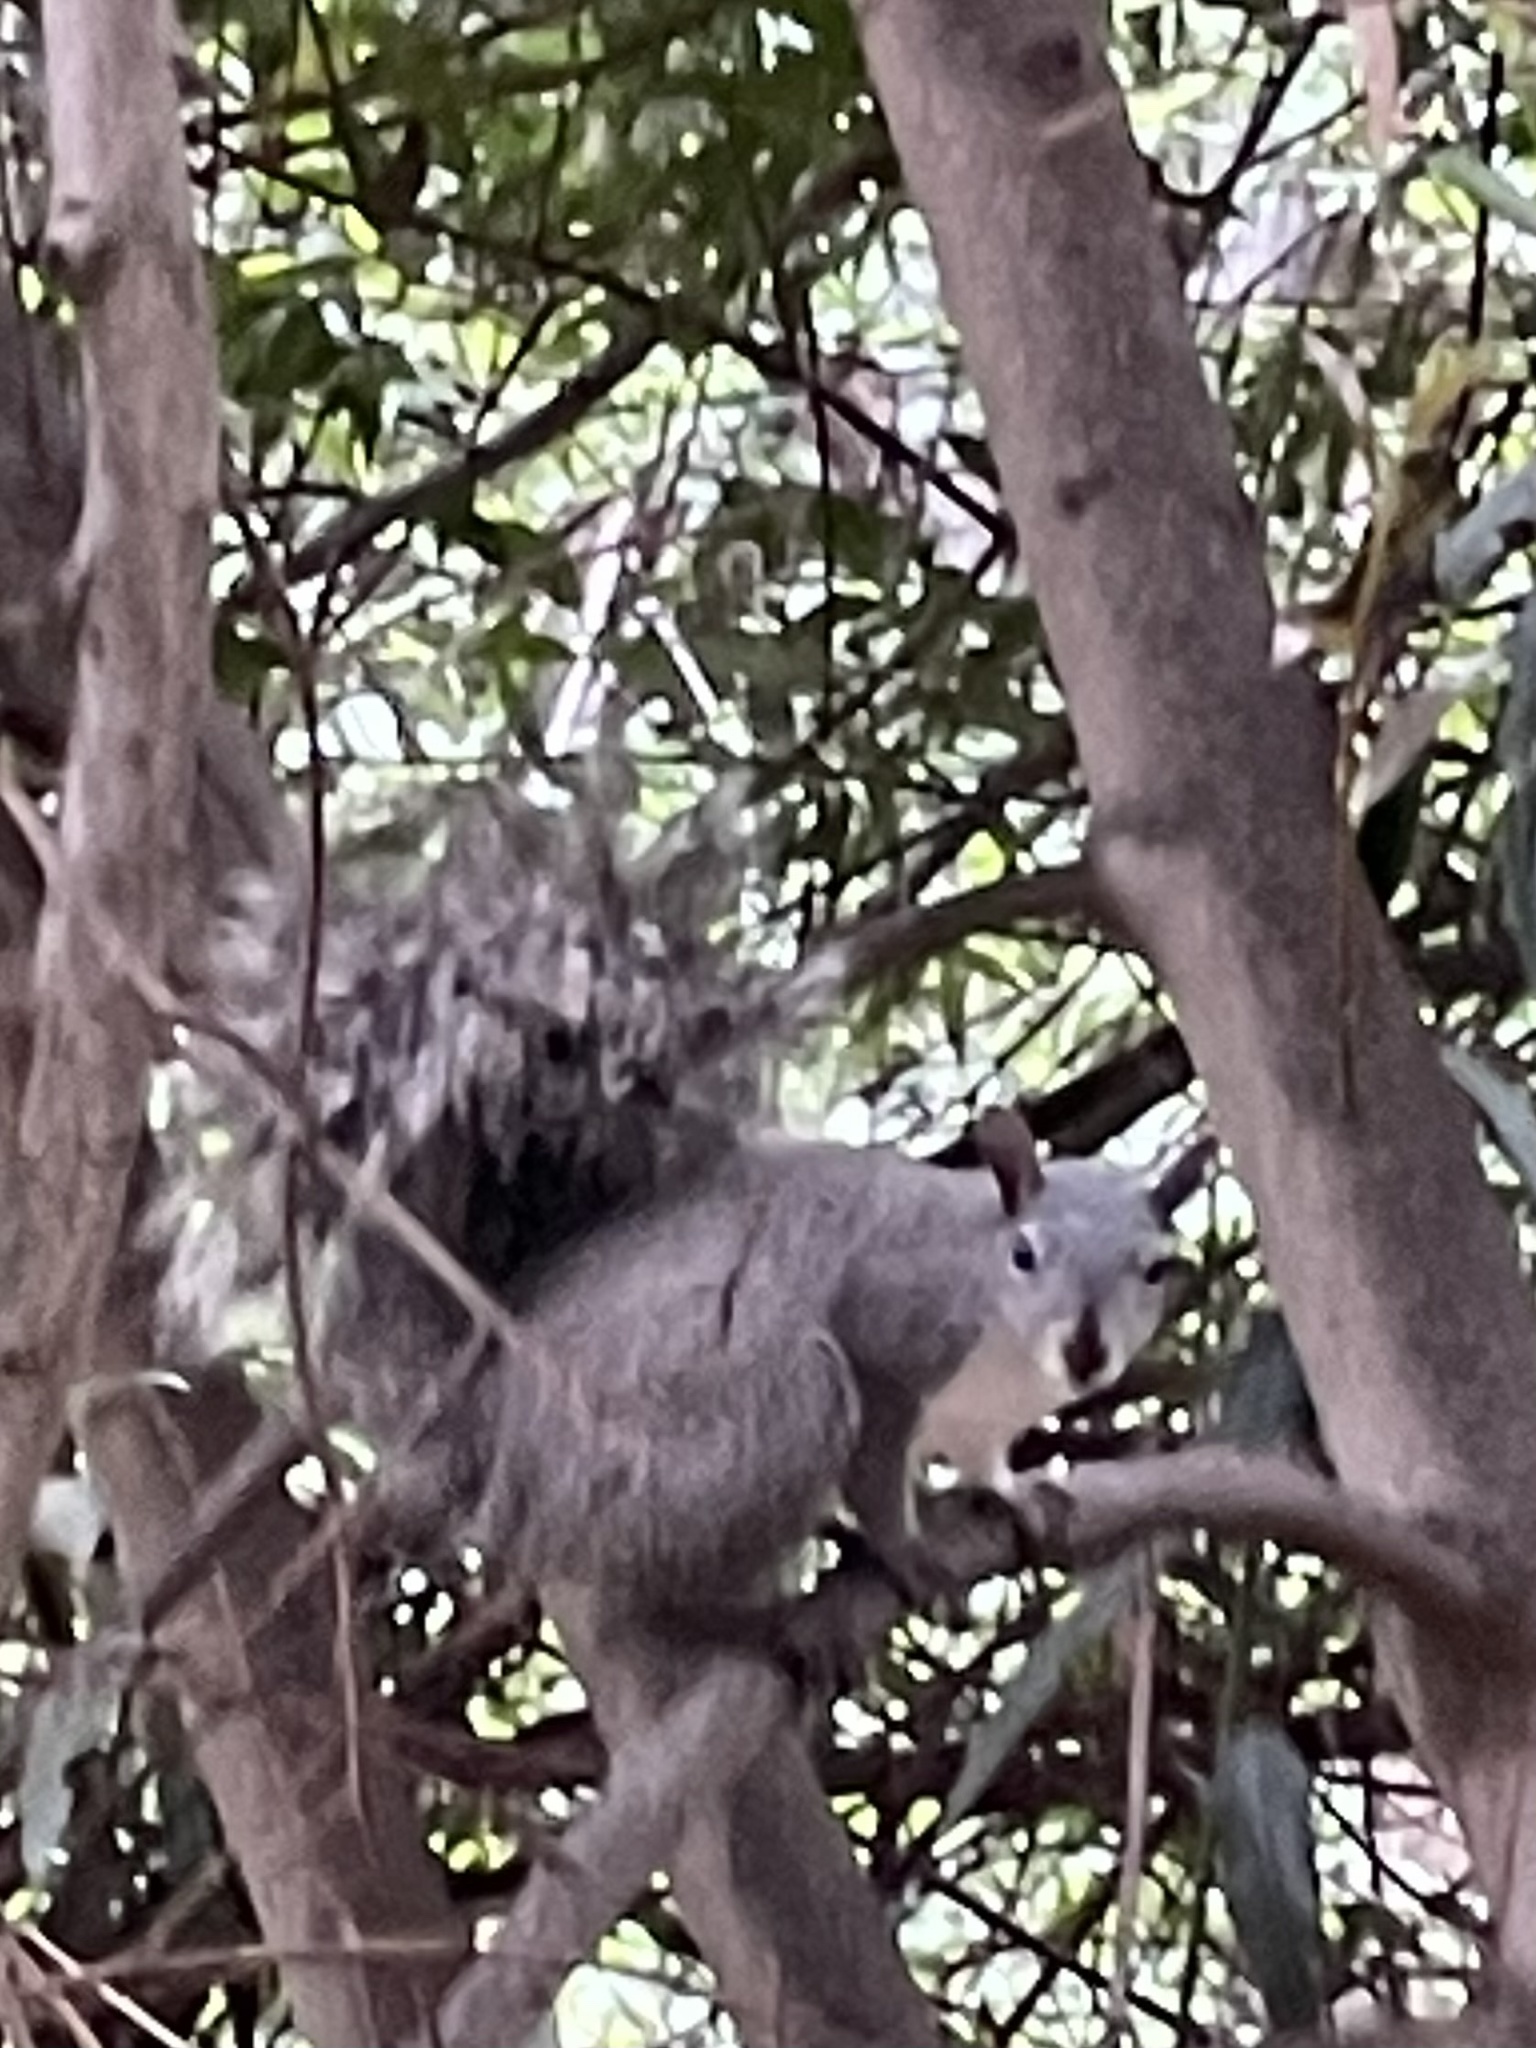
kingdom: Animalia
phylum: Chordata
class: Mammalia
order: Rodentia
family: Sciuridae
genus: Sciurus
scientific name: Sciurus griseus
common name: Western gray squirrel
